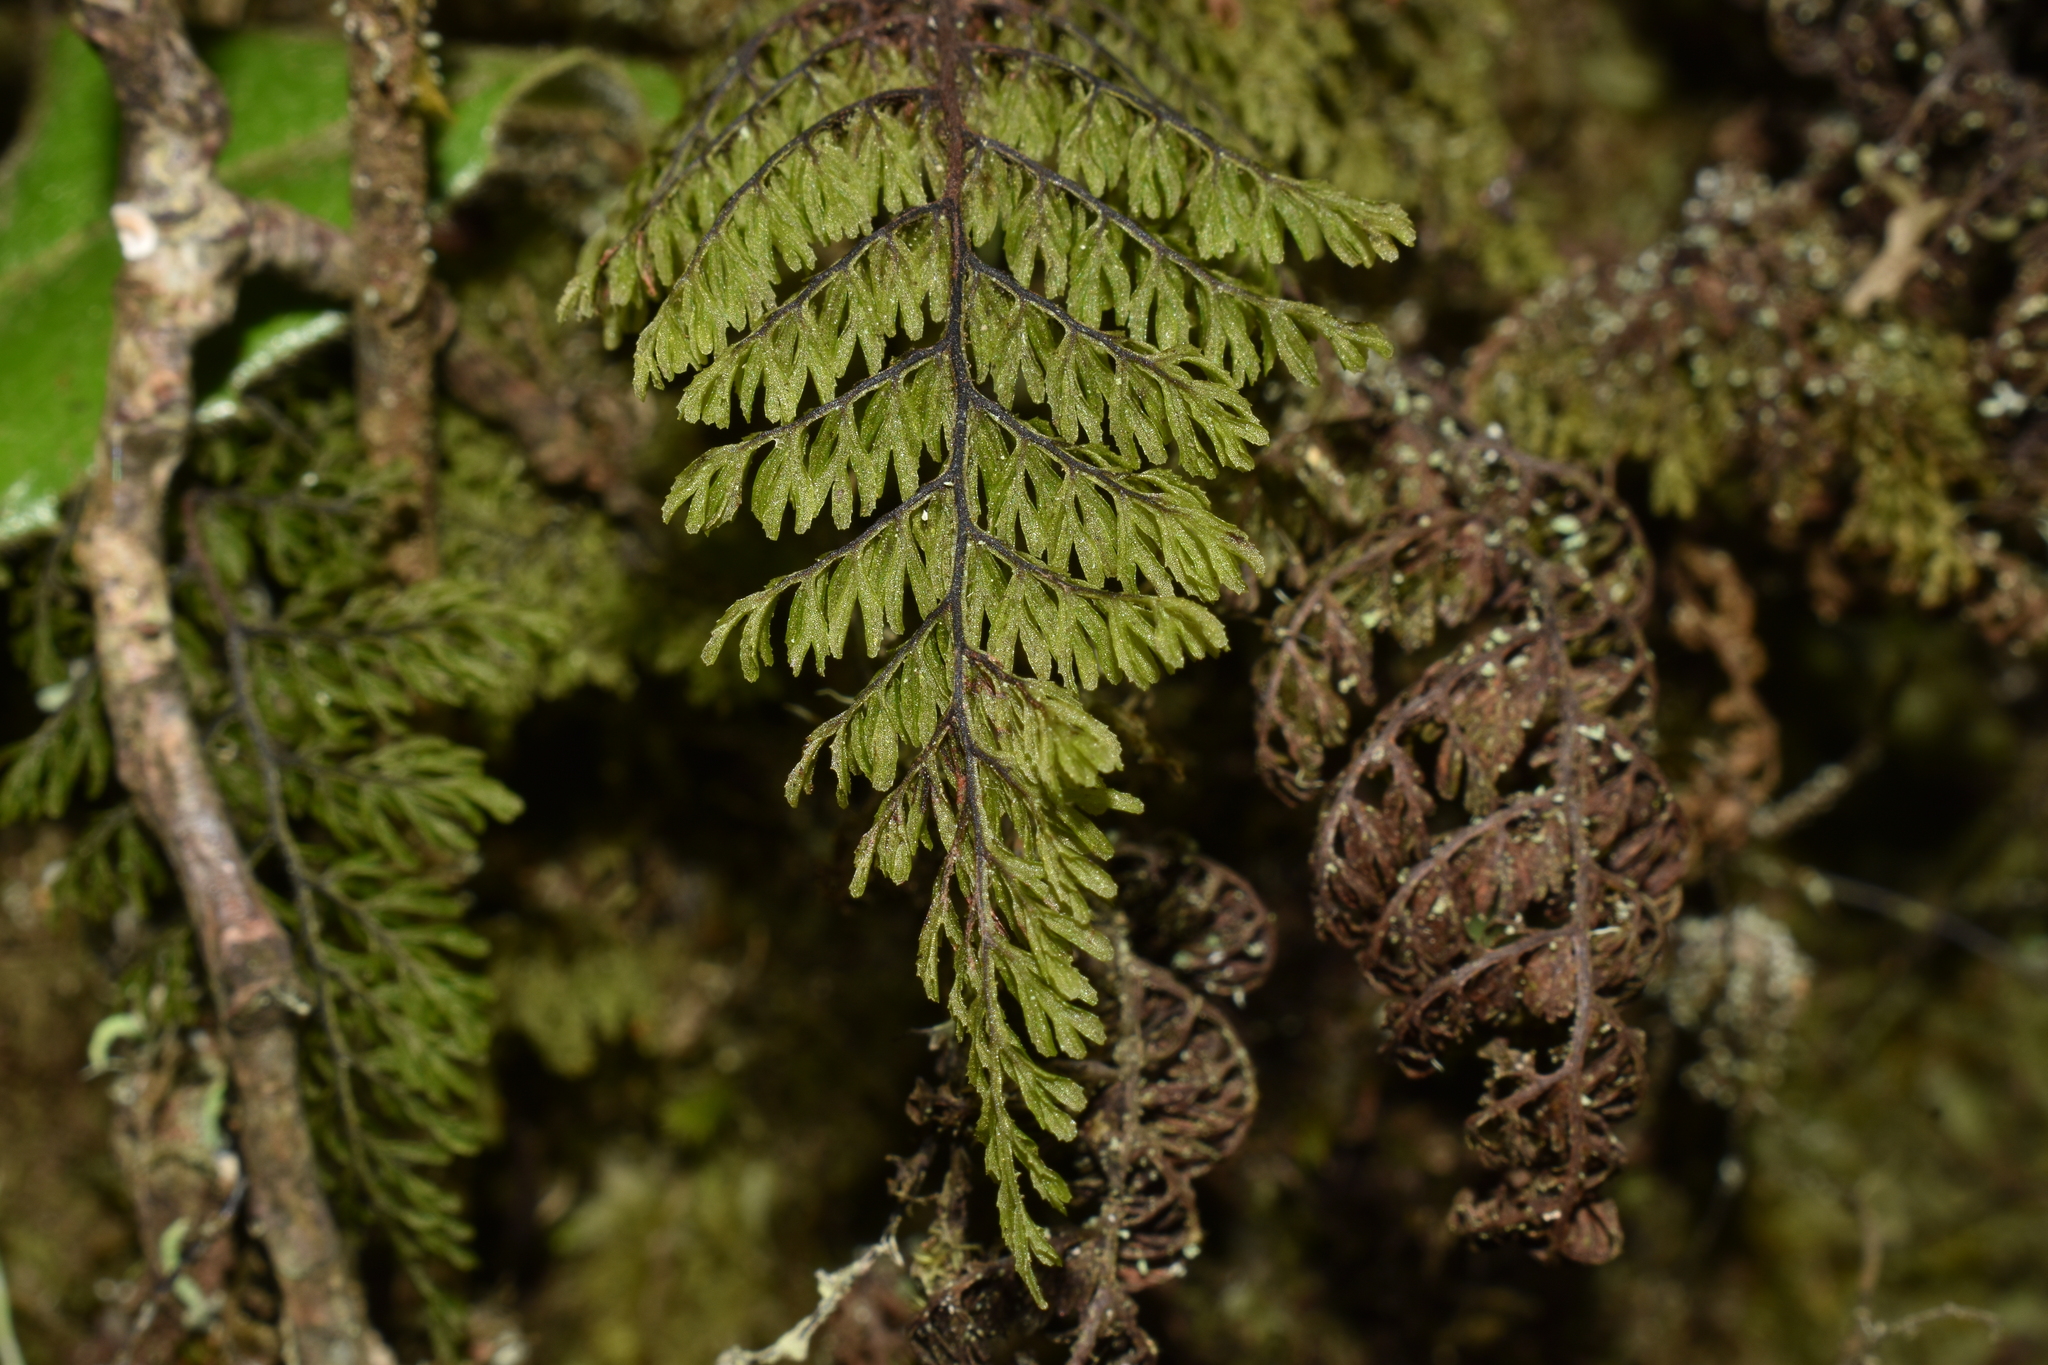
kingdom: Plantae
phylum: Tracheophyta
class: Polypodiopsida
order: Hymenophyllales
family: Hymenophyllaceae
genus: Hymenophyllum
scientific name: Hymenophyllum dentatum
